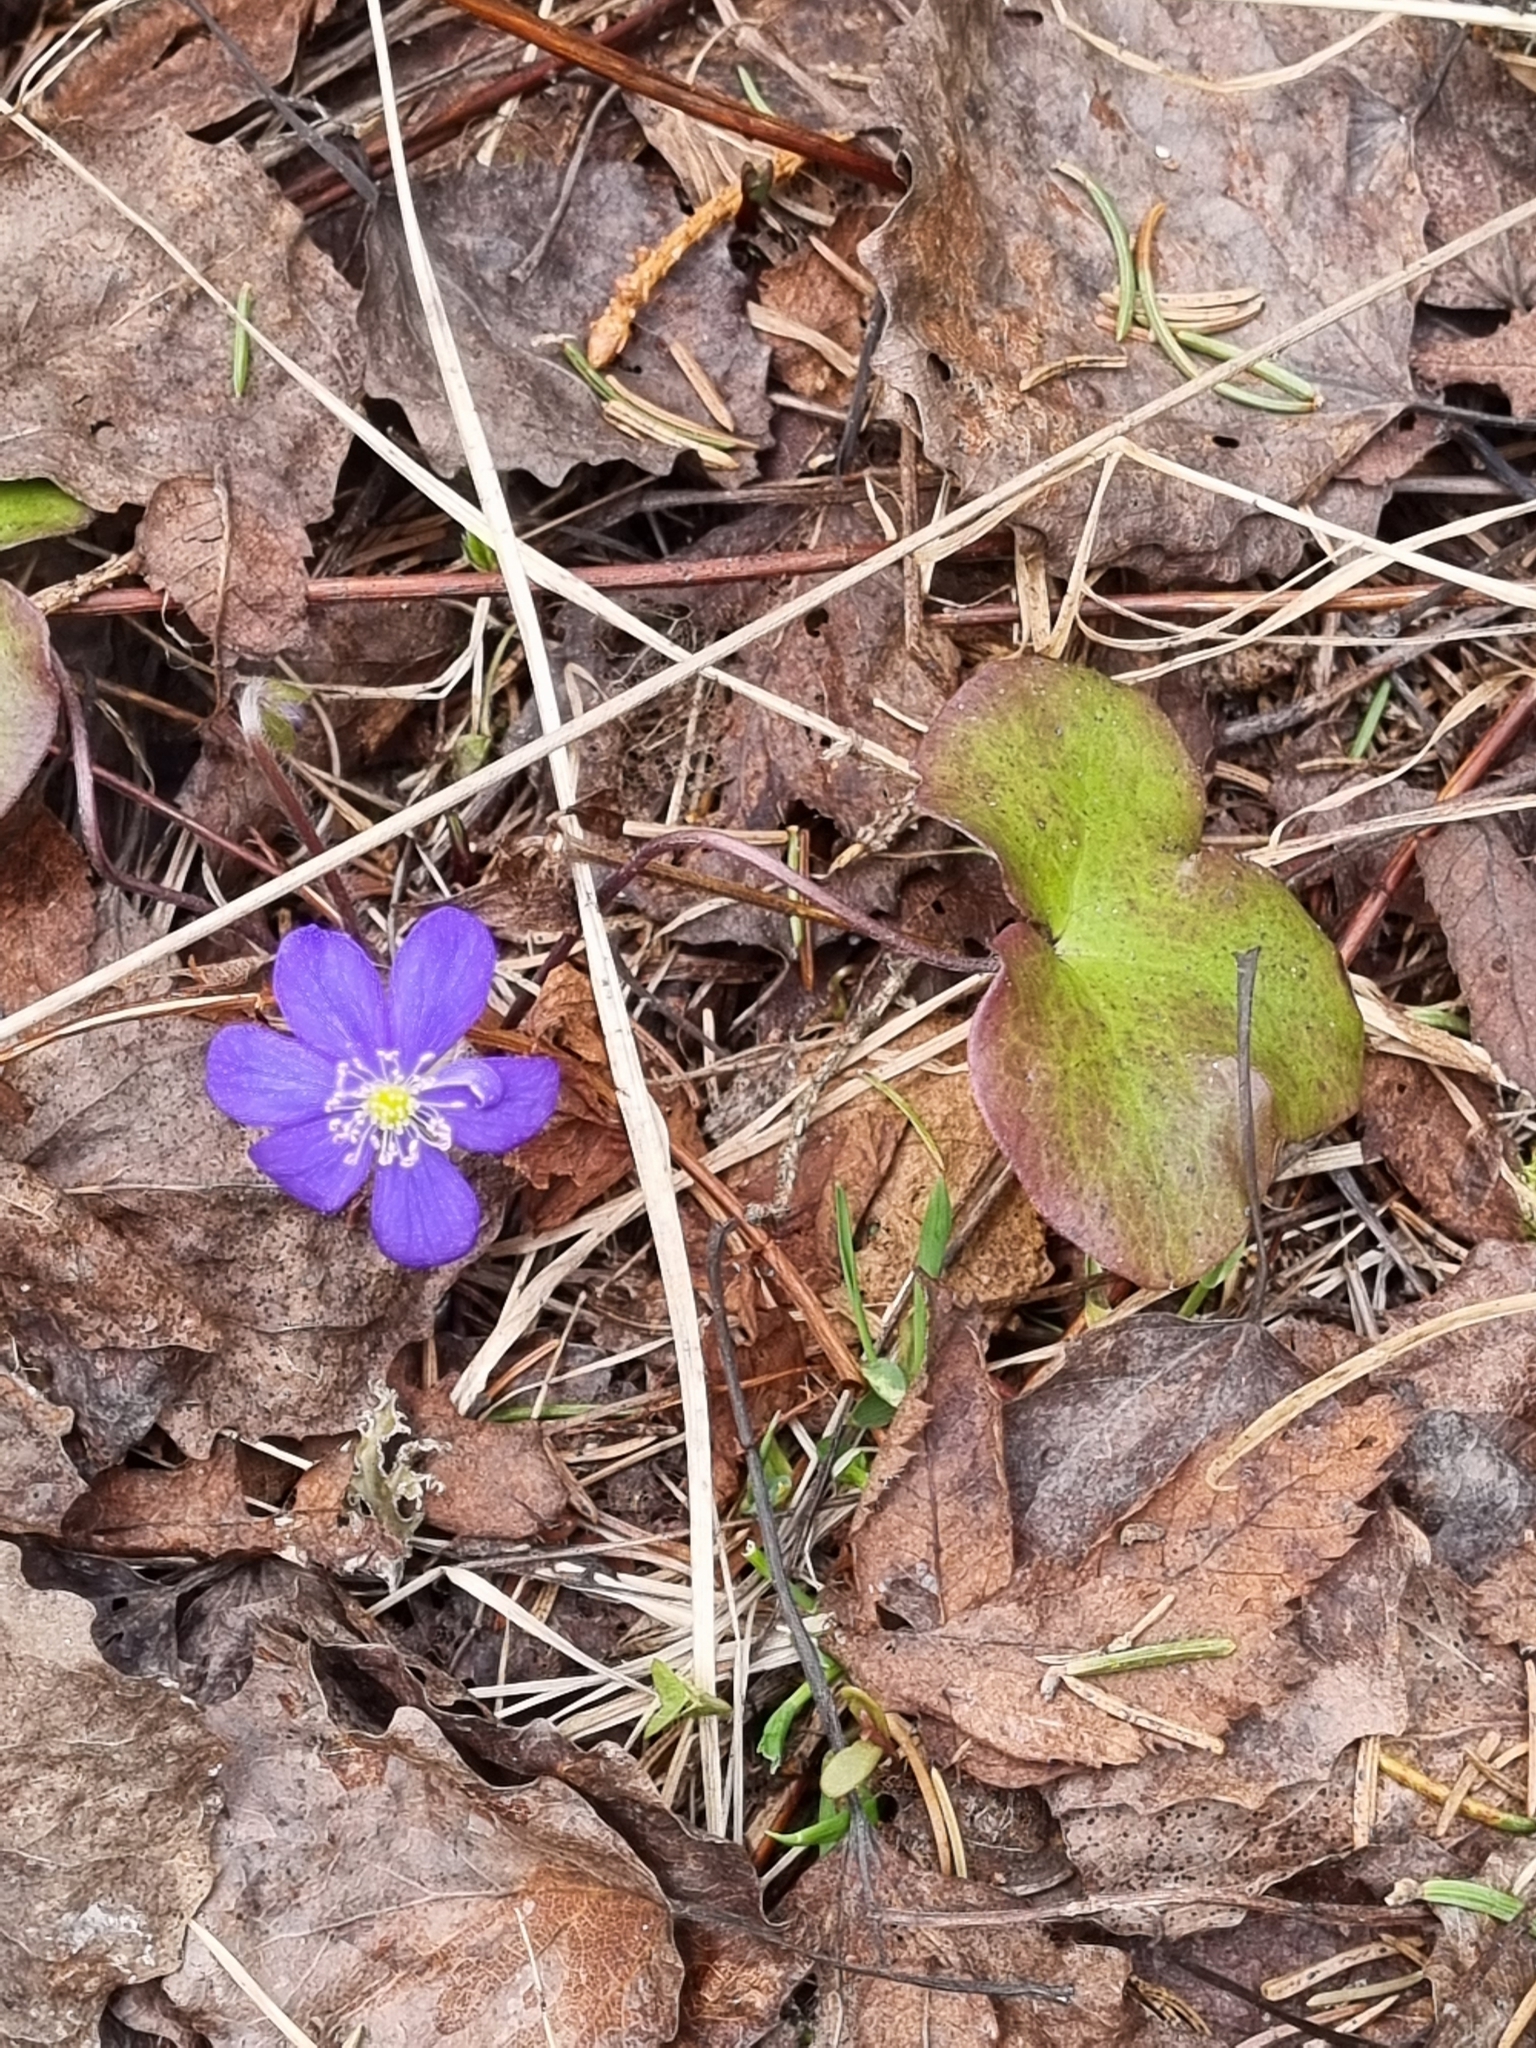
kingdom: Plantae
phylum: Tracheophyta
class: Magnoliopsida
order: Ranunculales
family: Ranunculaceae
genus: Hepatica
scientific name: Hepatica nobilis
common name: Liverleaf
